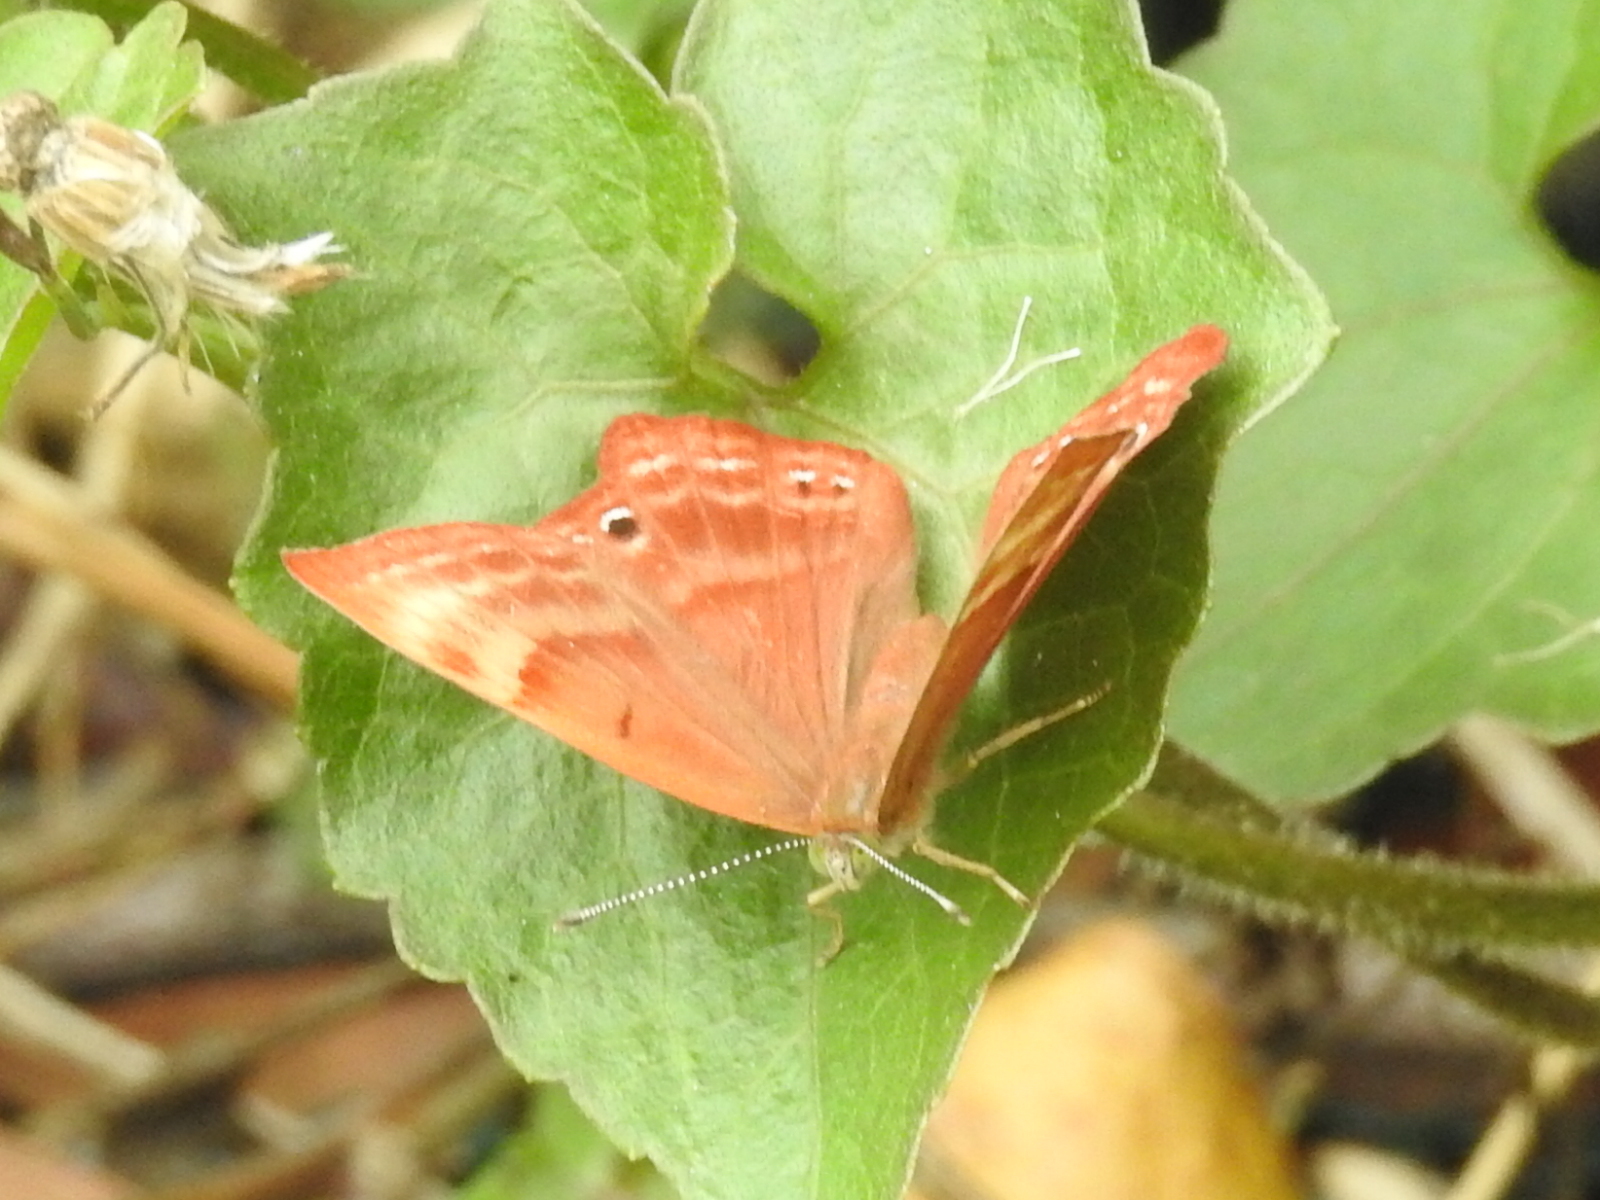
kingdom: Animalia
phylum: Arthropoda
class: Insecta
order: Lepidoptera
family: Lycaenidae
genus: Abisara
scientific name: Abisara echeria
